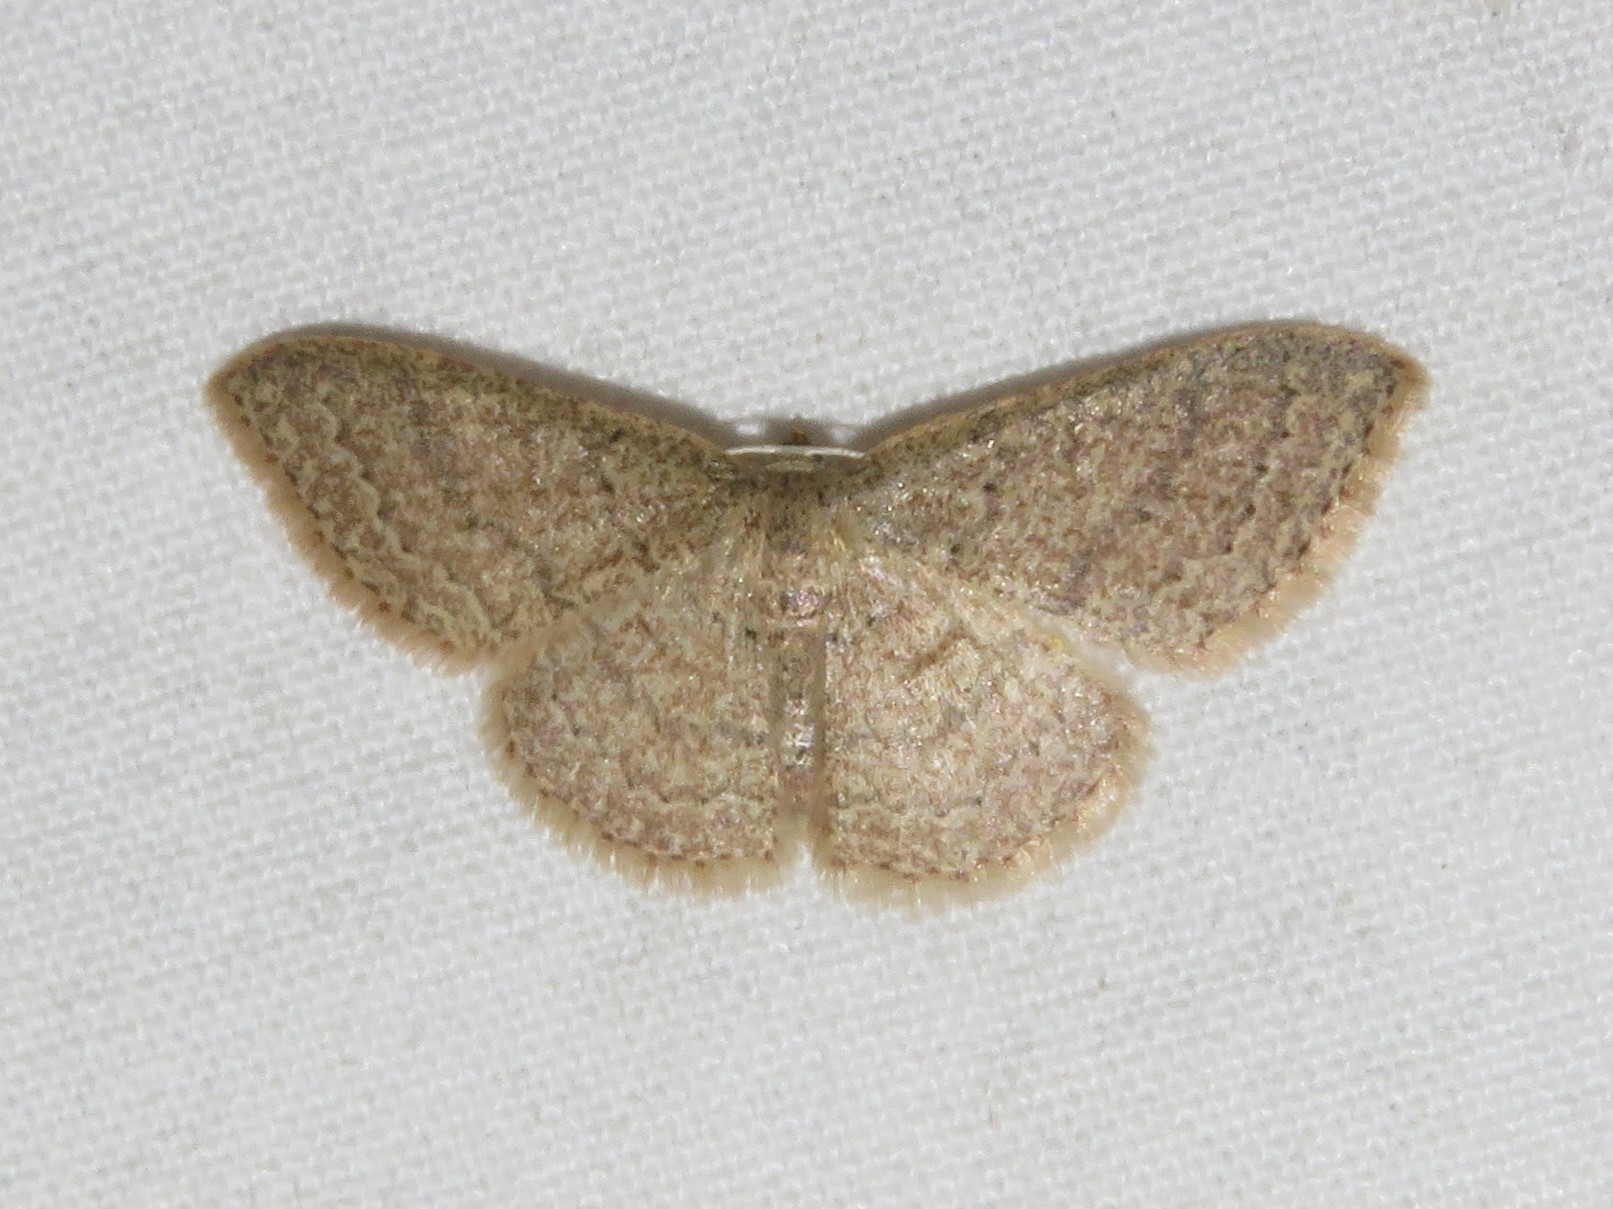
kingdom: Animalia
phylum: Arthropoda
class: Insecta
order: Lepidoptera
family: Geometridae
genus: Pleuroprucha
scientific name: Pleuroprucha insulsaria
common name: Common tan wave
